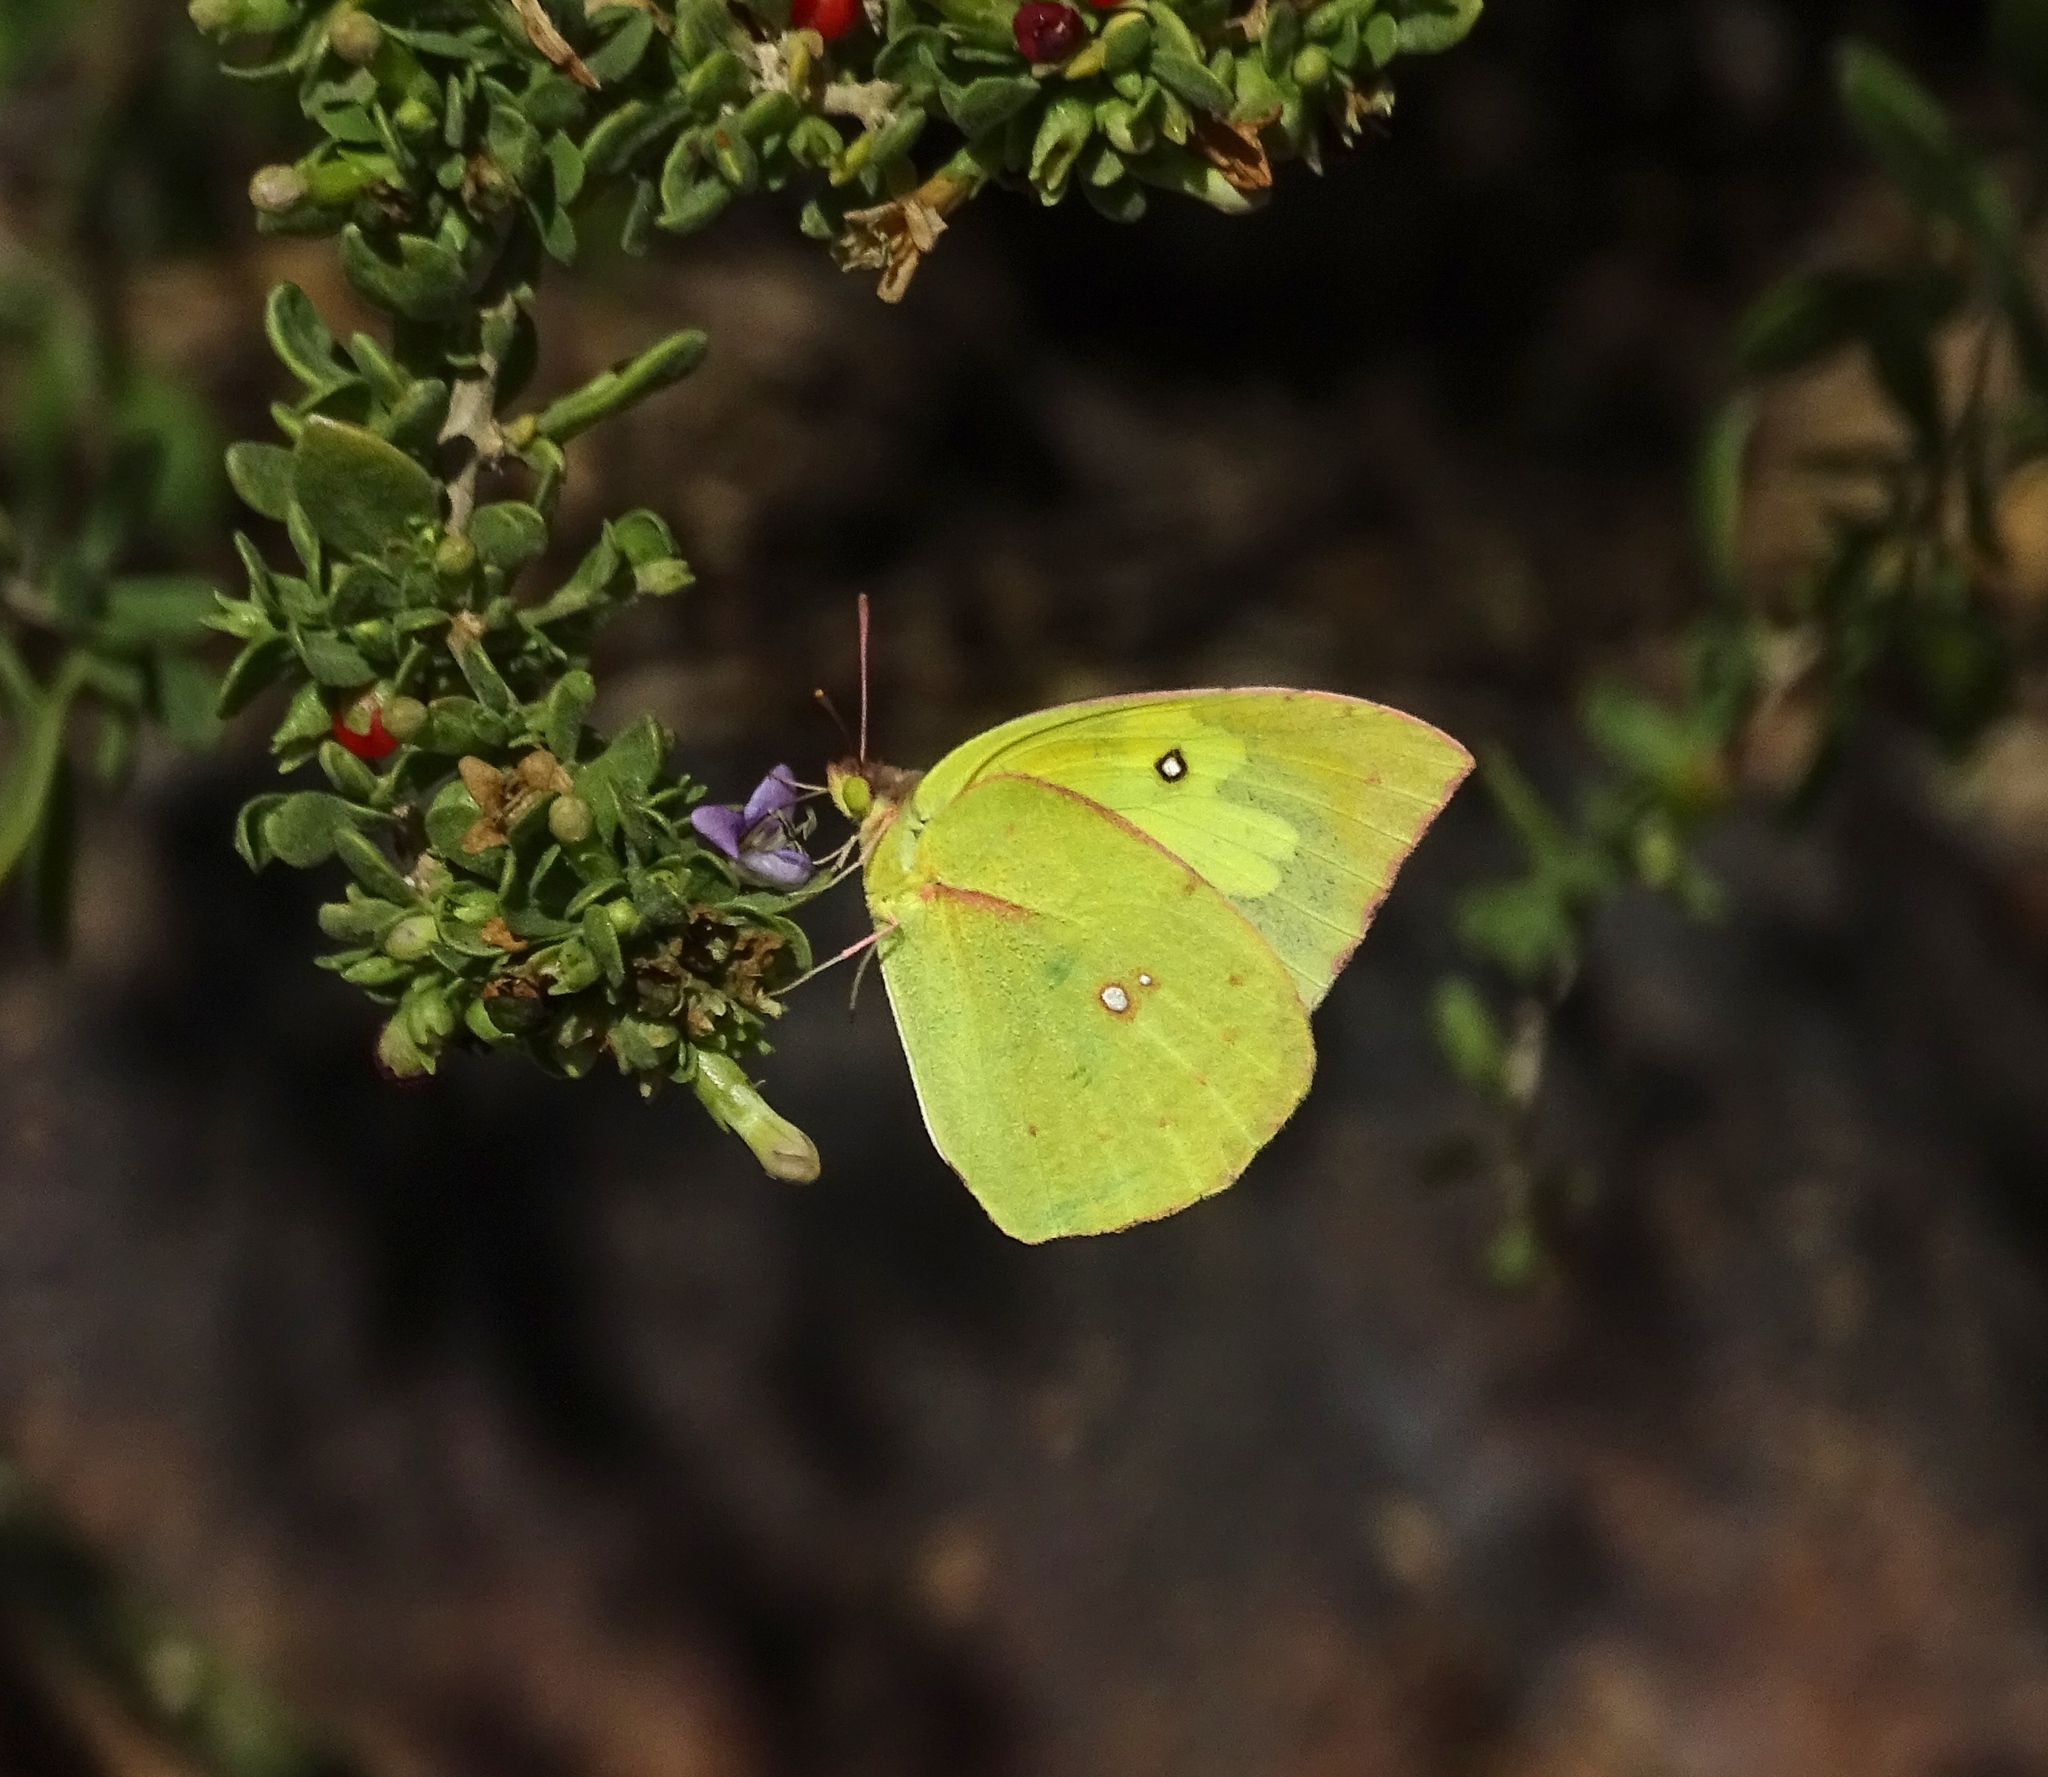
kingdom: Animalia
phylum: Arthropoda
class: Insecta
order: Lepidoptera
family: Pieridae
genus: Zerene
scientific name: Zerene cesonia
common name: Southern dogface
